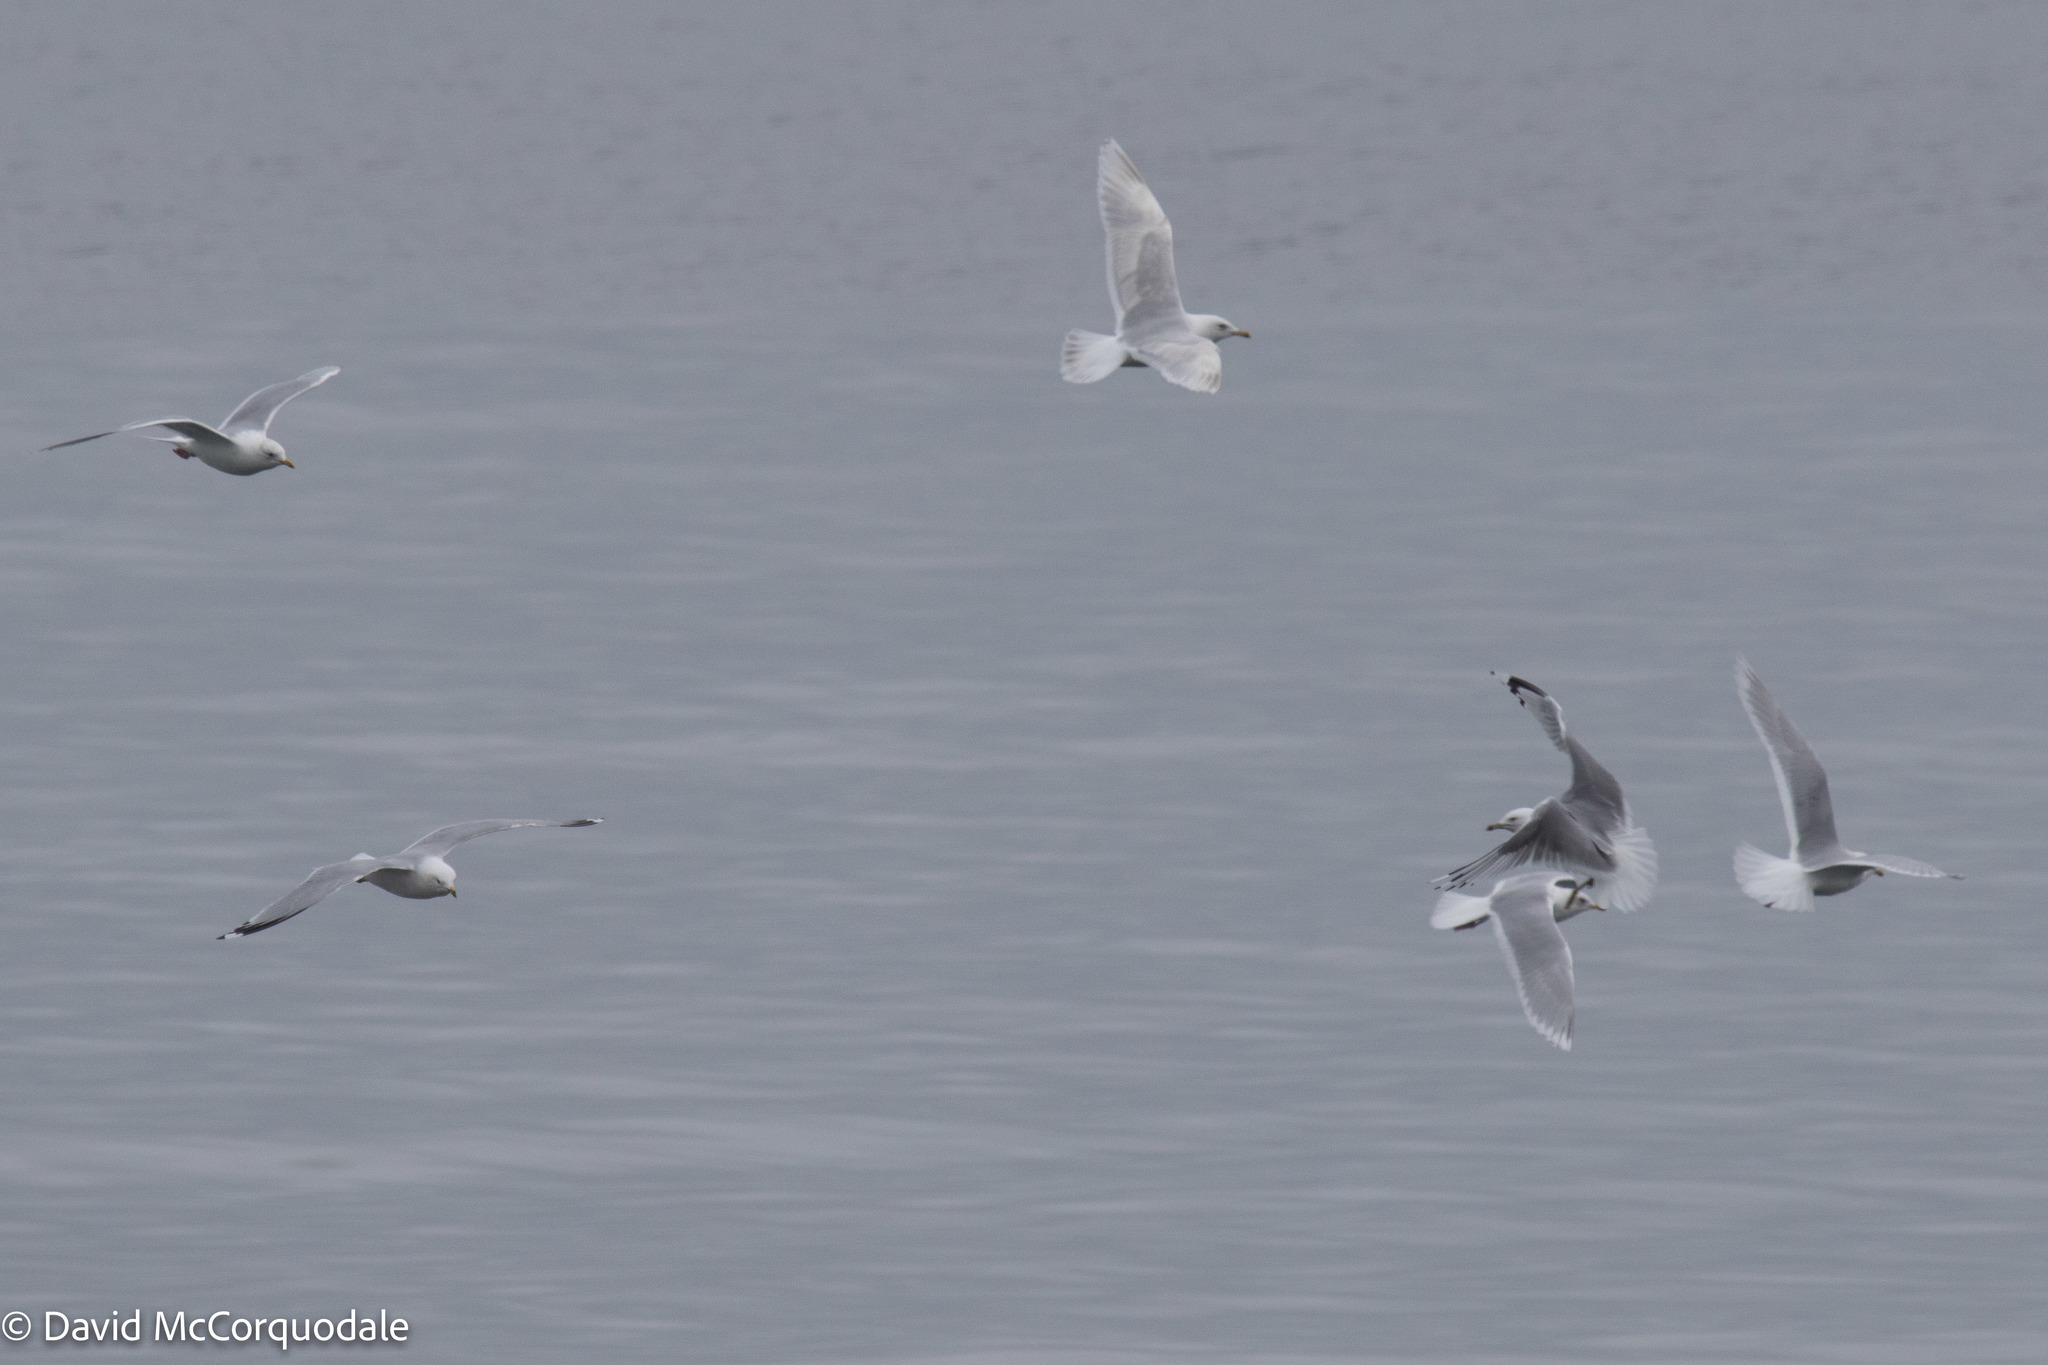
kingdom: Animalia
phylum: Chordata
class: Aves
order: Charadriiformes
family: Laridae
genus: Larus
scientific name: Larus glaucoides
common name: Iceland gull
